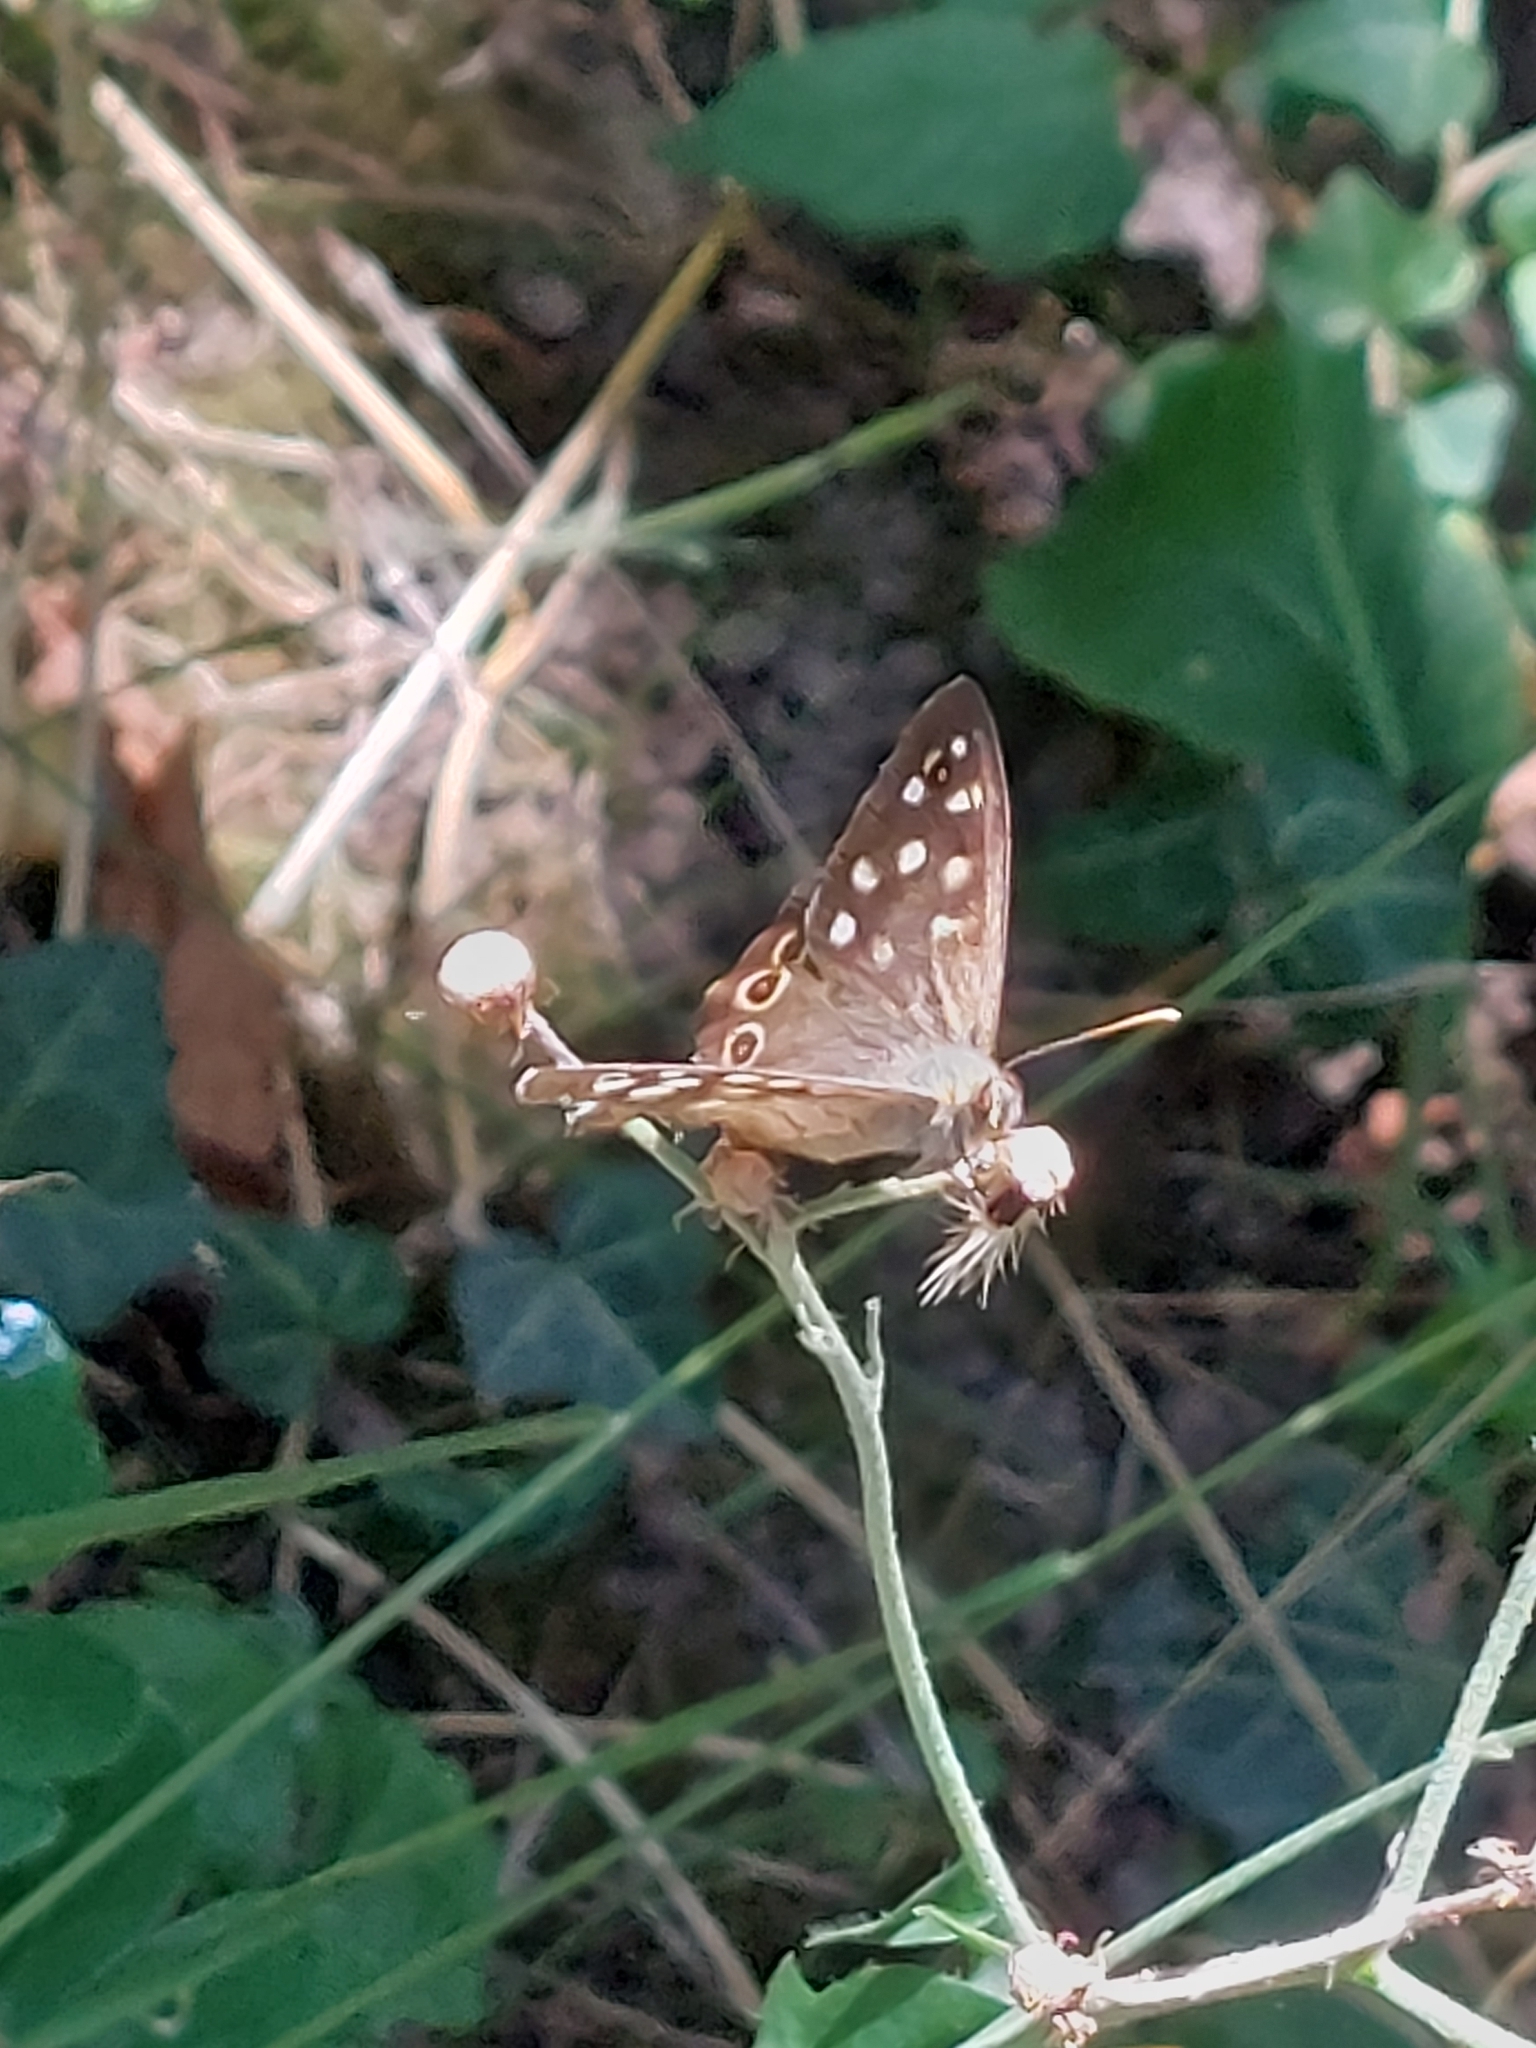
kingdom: Animalia
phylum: Arthropoda
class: Insecta
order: Lepidoptera
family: Nymphalidae
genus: Pararge
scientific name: Pararge aegeria
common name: Speckled wood
